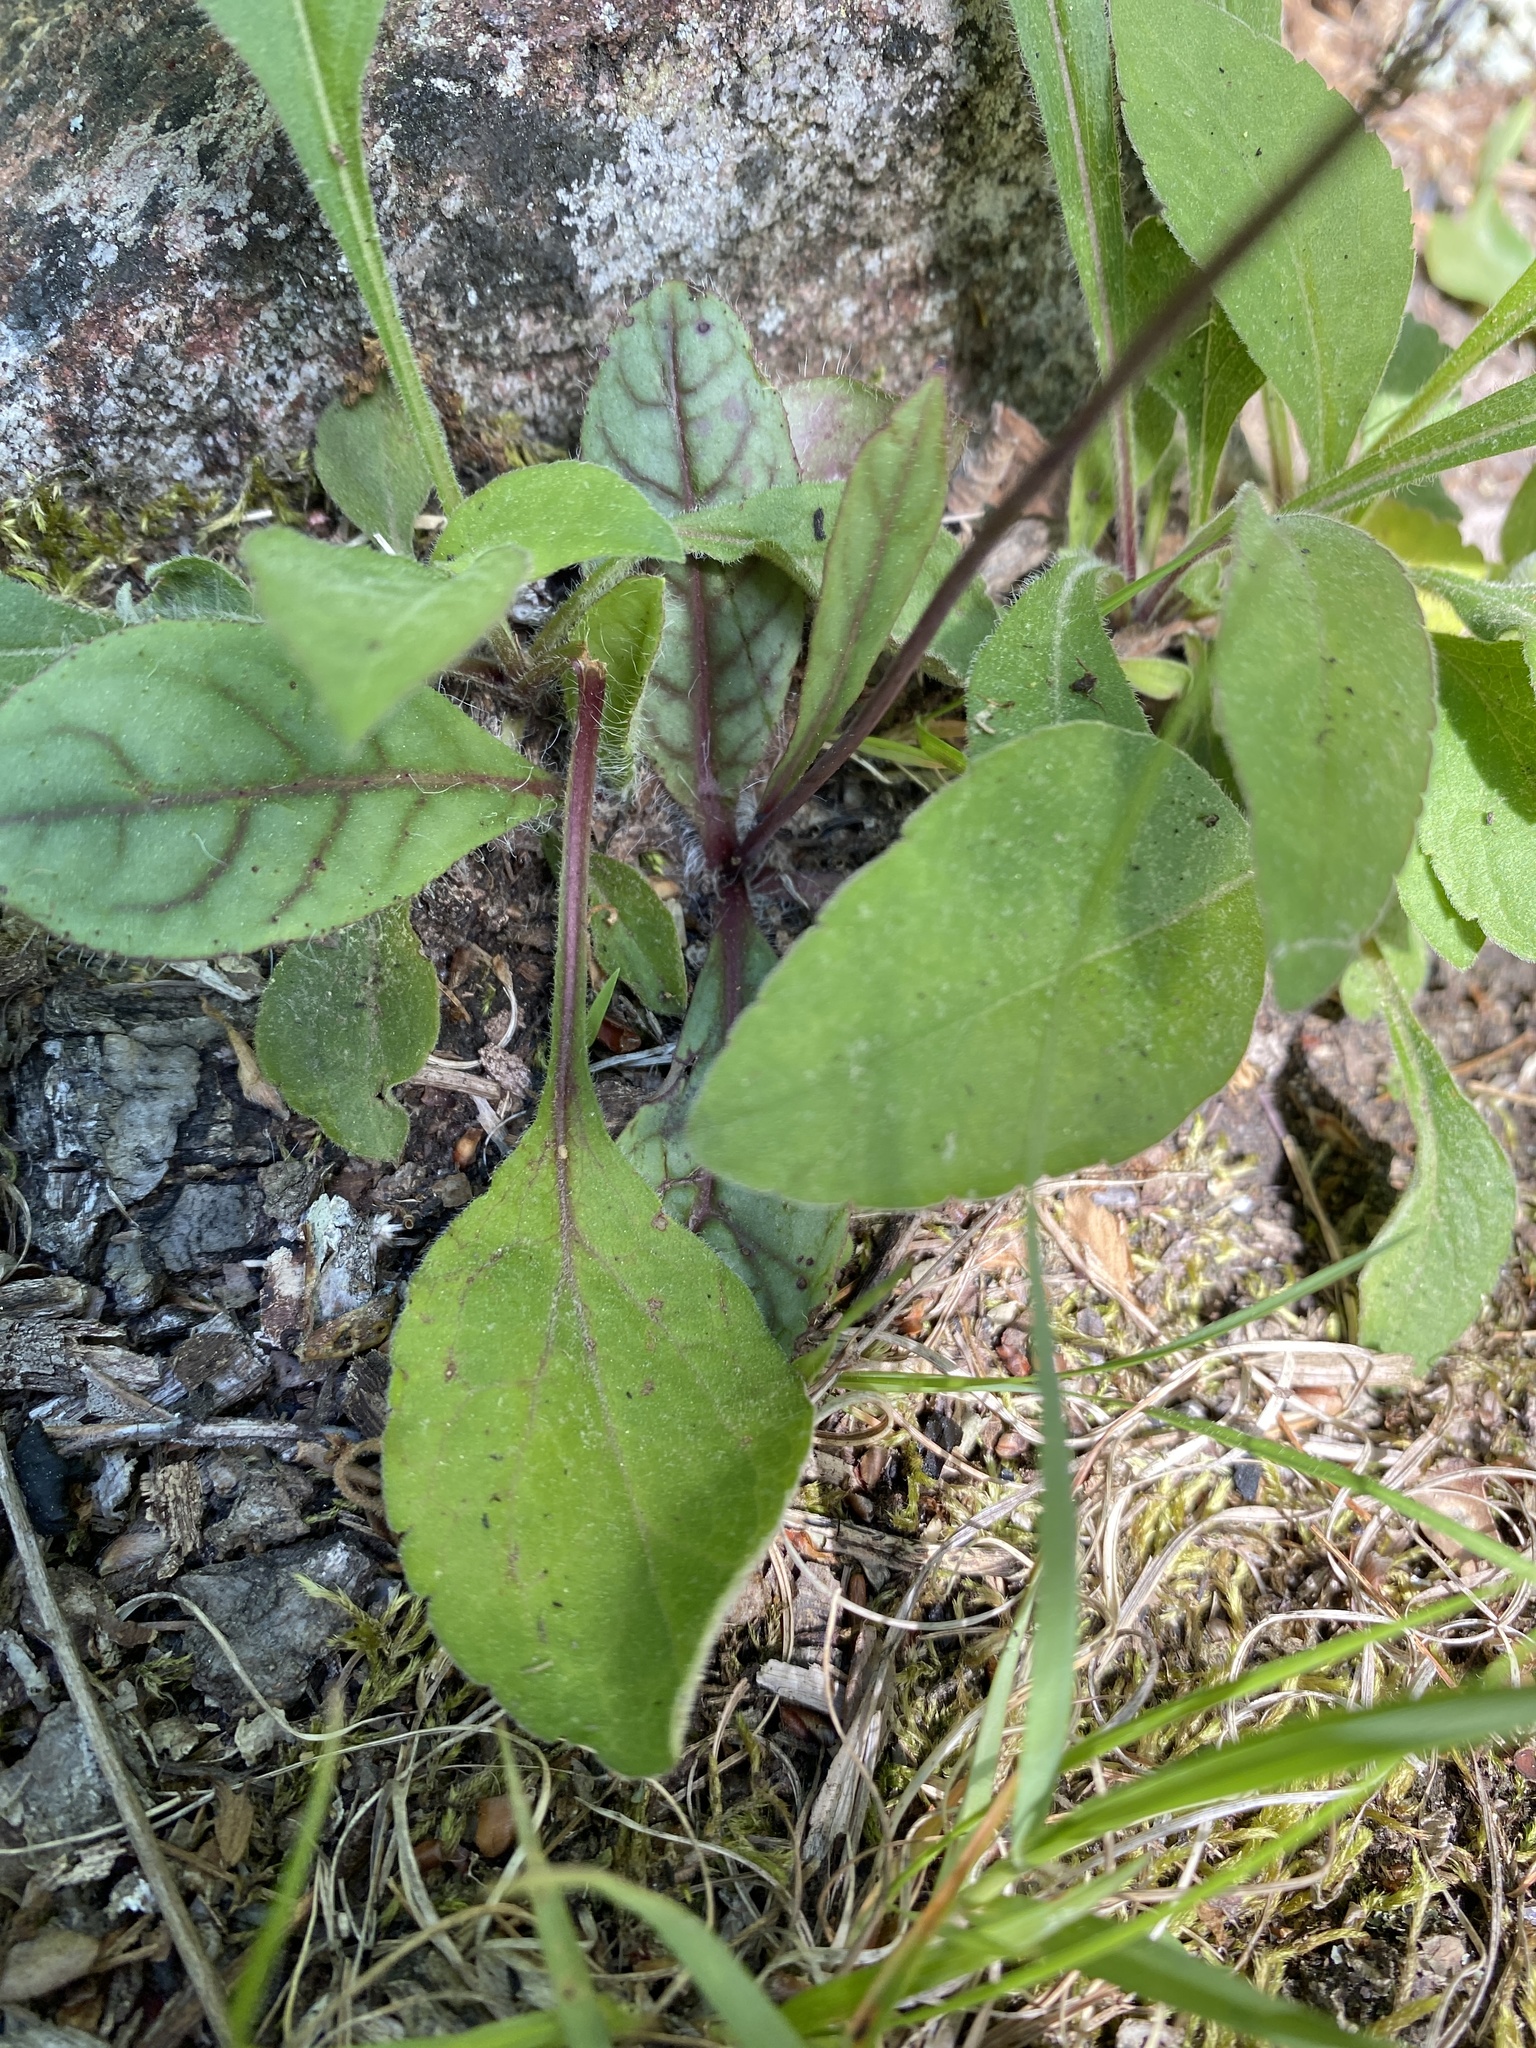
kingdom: Plantae
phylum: Tracheophyta
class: Magnoliopsida
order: Asterales
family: Asteraceae
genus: Hieracium
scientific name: Hieracium venosum
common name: Rattlesnake hawkweed
